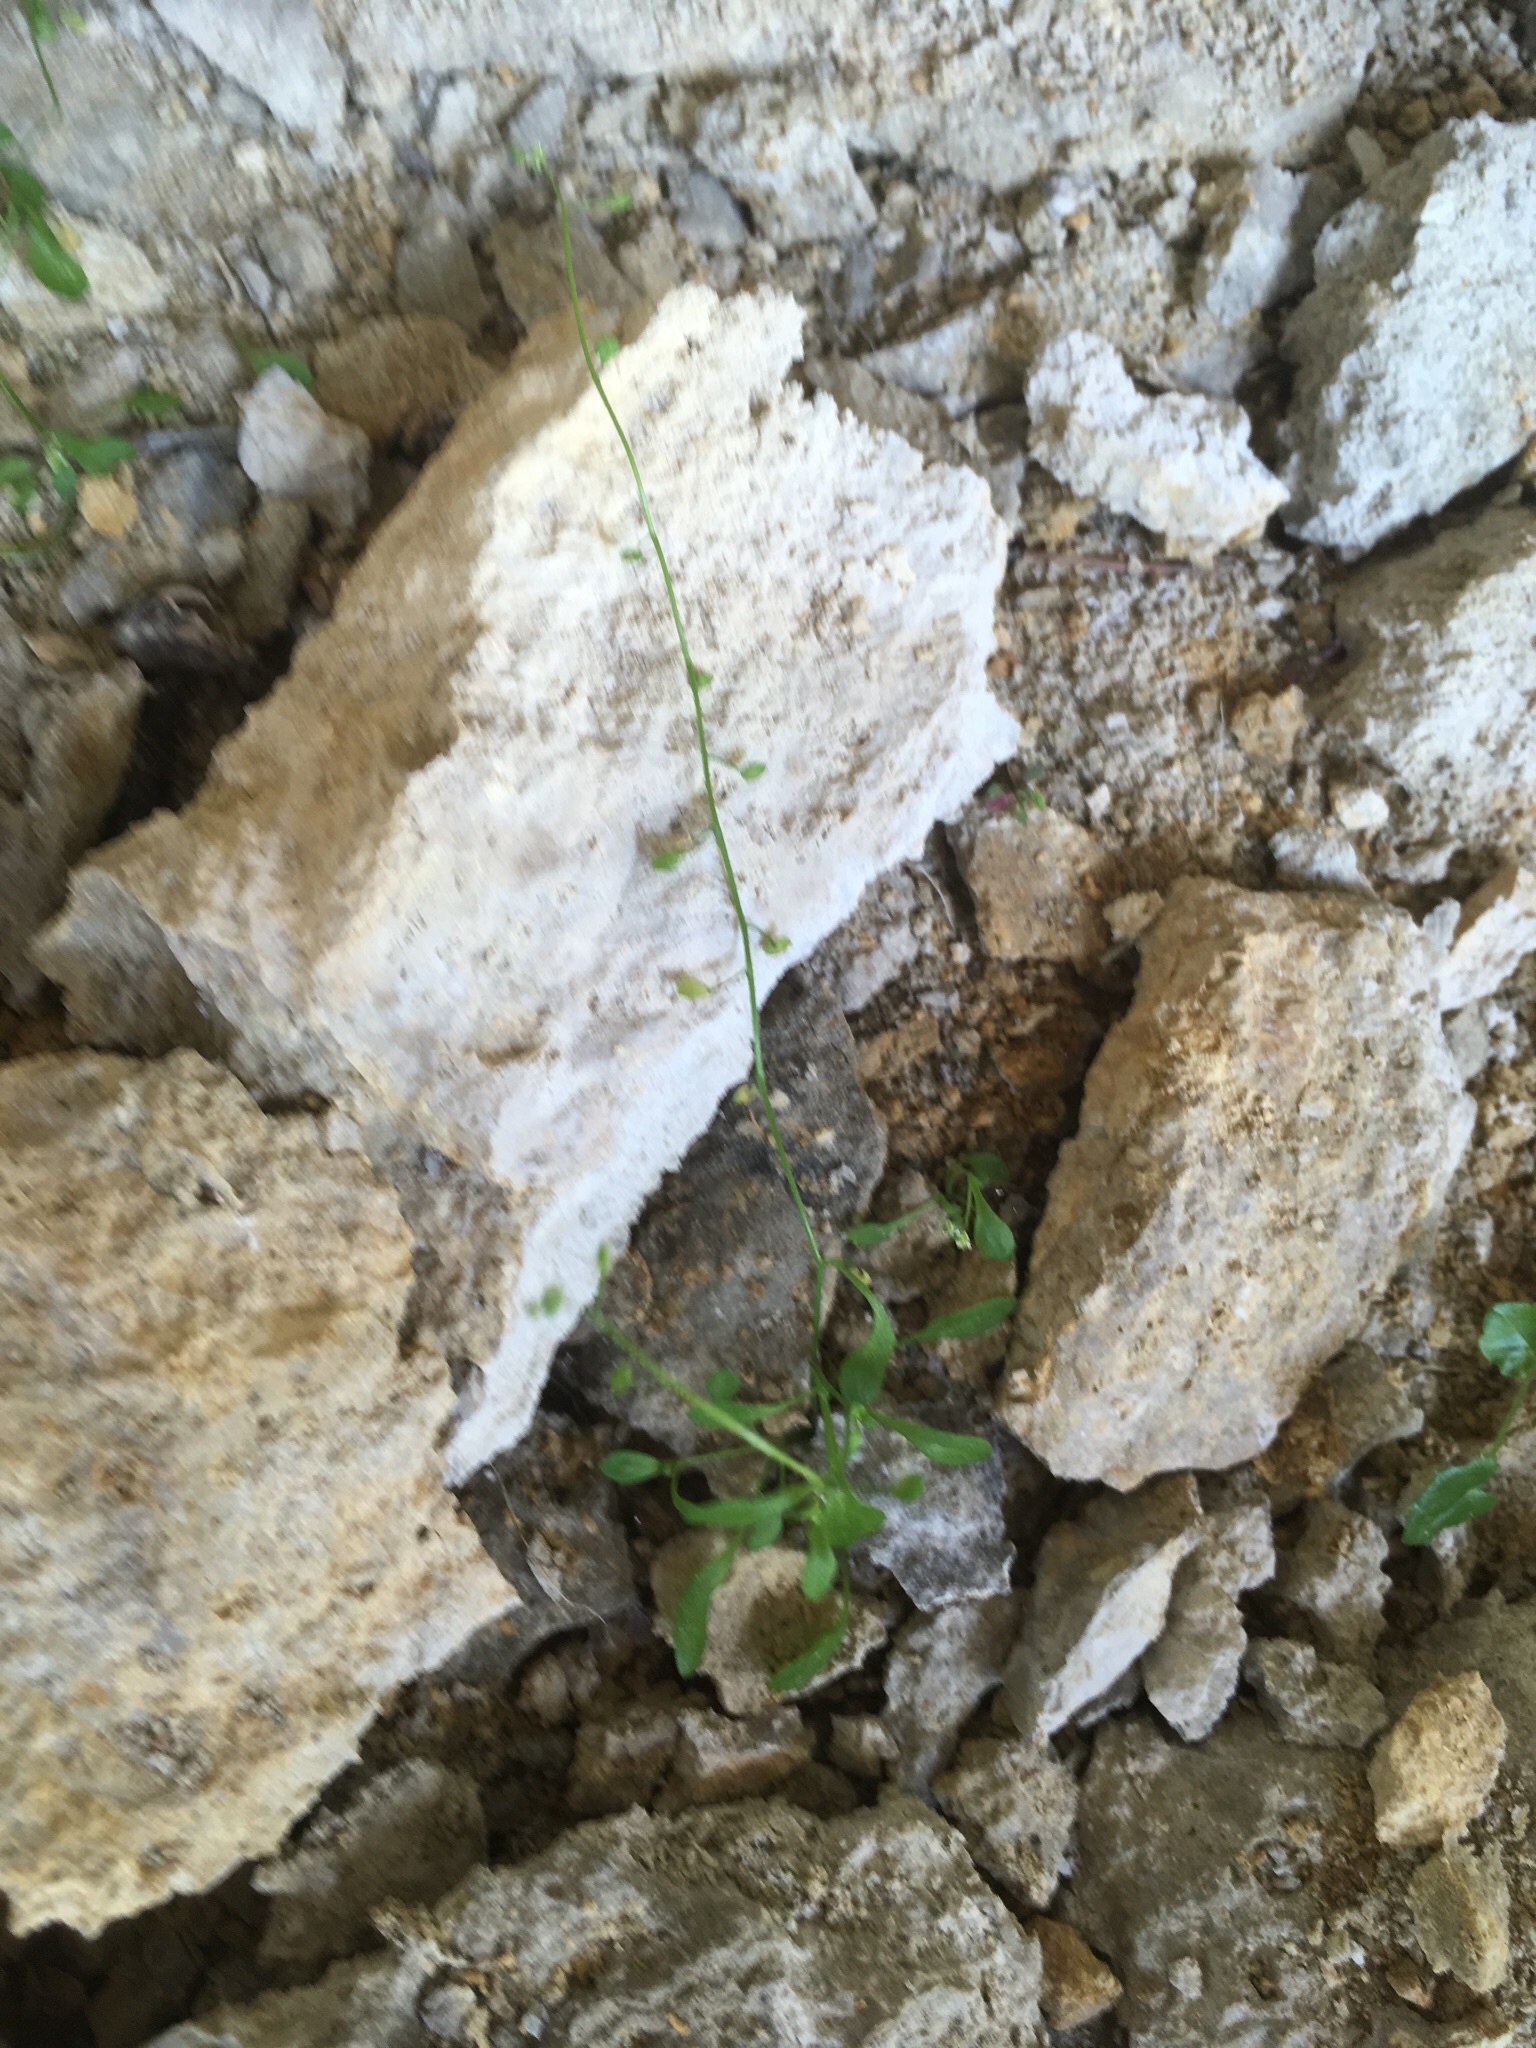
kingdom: Plantae
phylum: Tracheophyta
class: Magnoliopsida
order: Brassicales
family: Brassicaceae
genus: Hornungia
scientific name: Hornungia procumbens
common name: Oval purse
